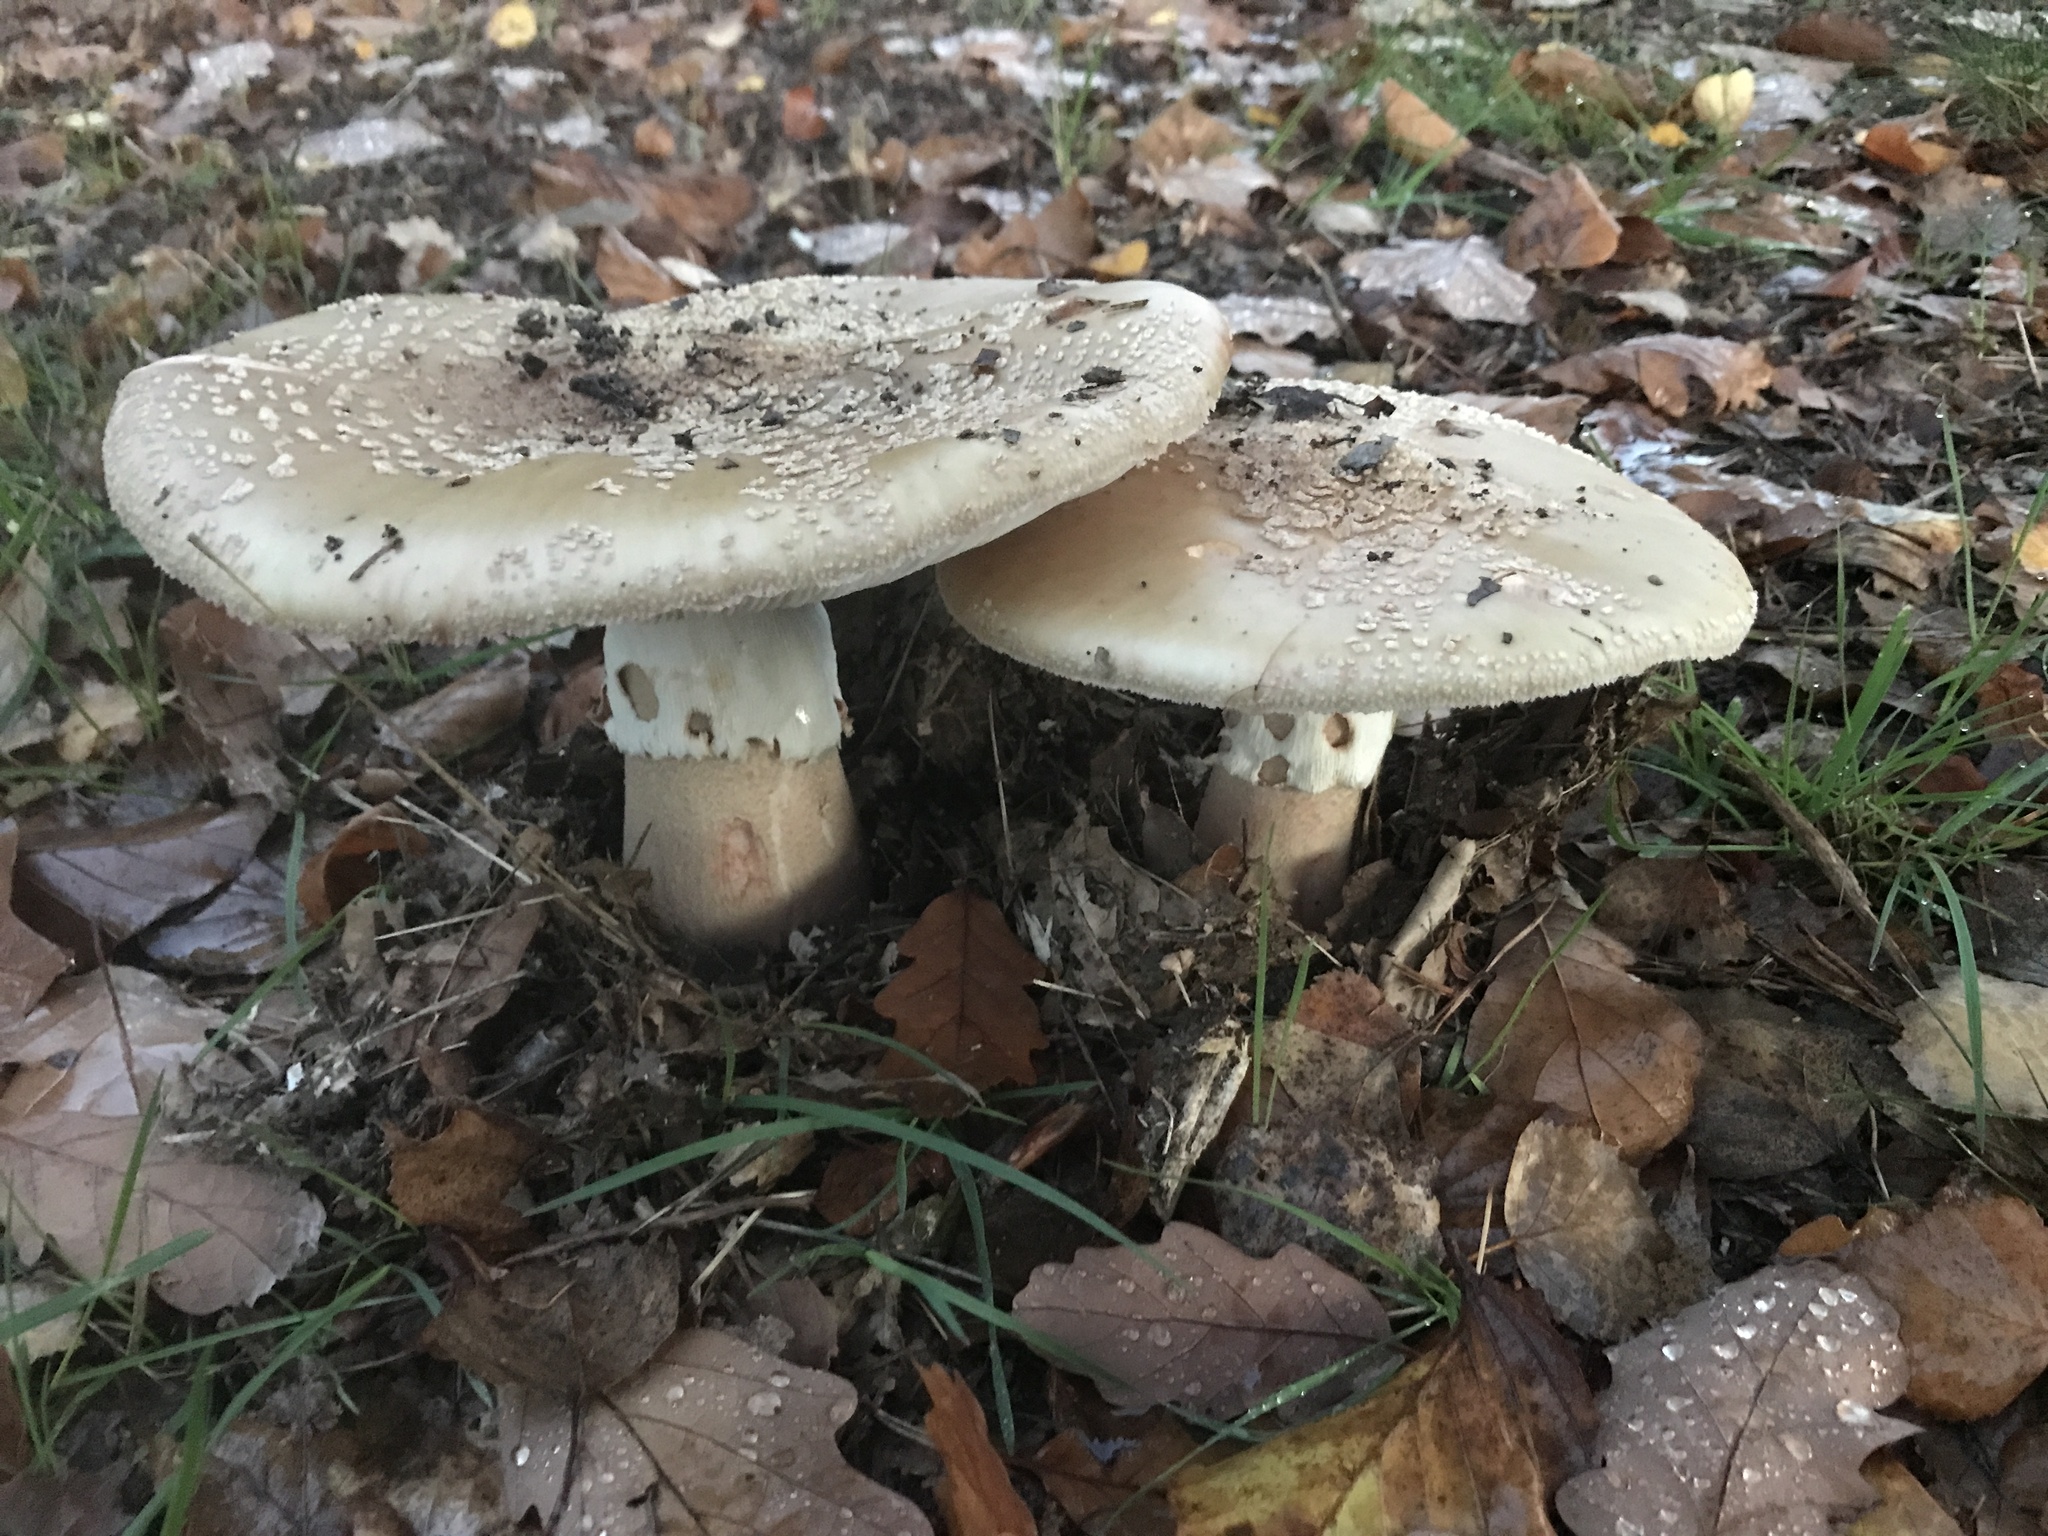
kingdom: Fungi
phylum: Basidiomycota
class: Agaricomycetes
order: Agaricales
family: Amanitaceae
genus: Amanita
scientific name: Amanita rubescens
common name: Blusher
